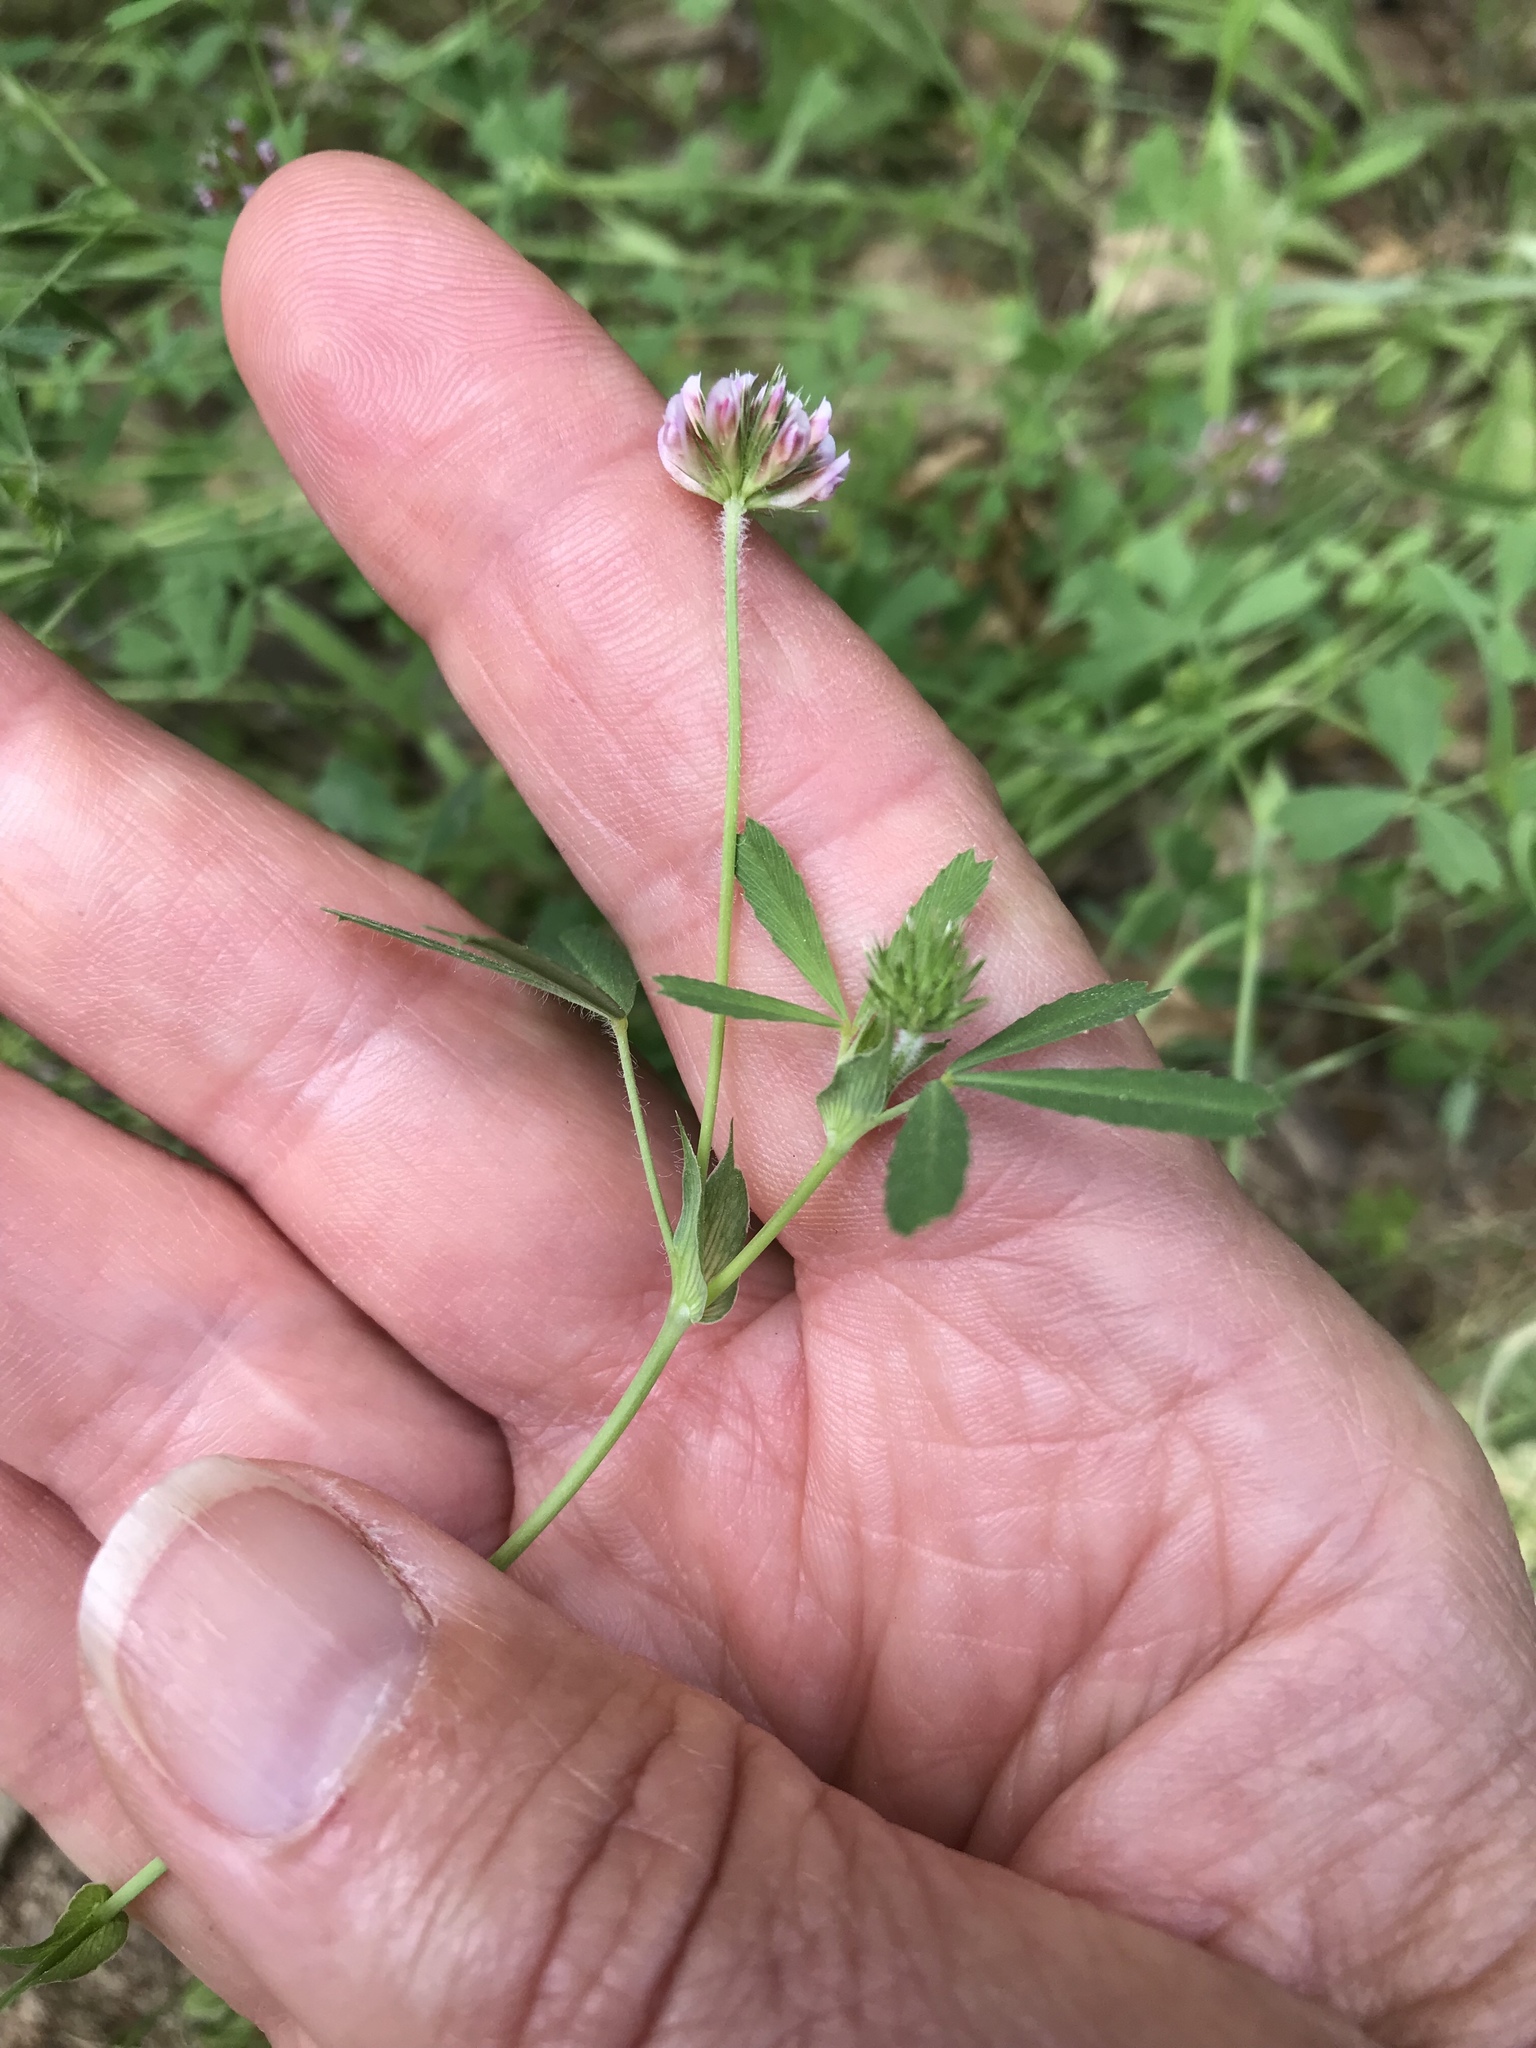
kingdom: Plantae
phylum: Tracheophyta
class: Magnoliopsida
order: Fabales
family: Fabaceae
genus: Trifolium
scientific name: Trifolium bifidum
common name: Notch-leaf clover
